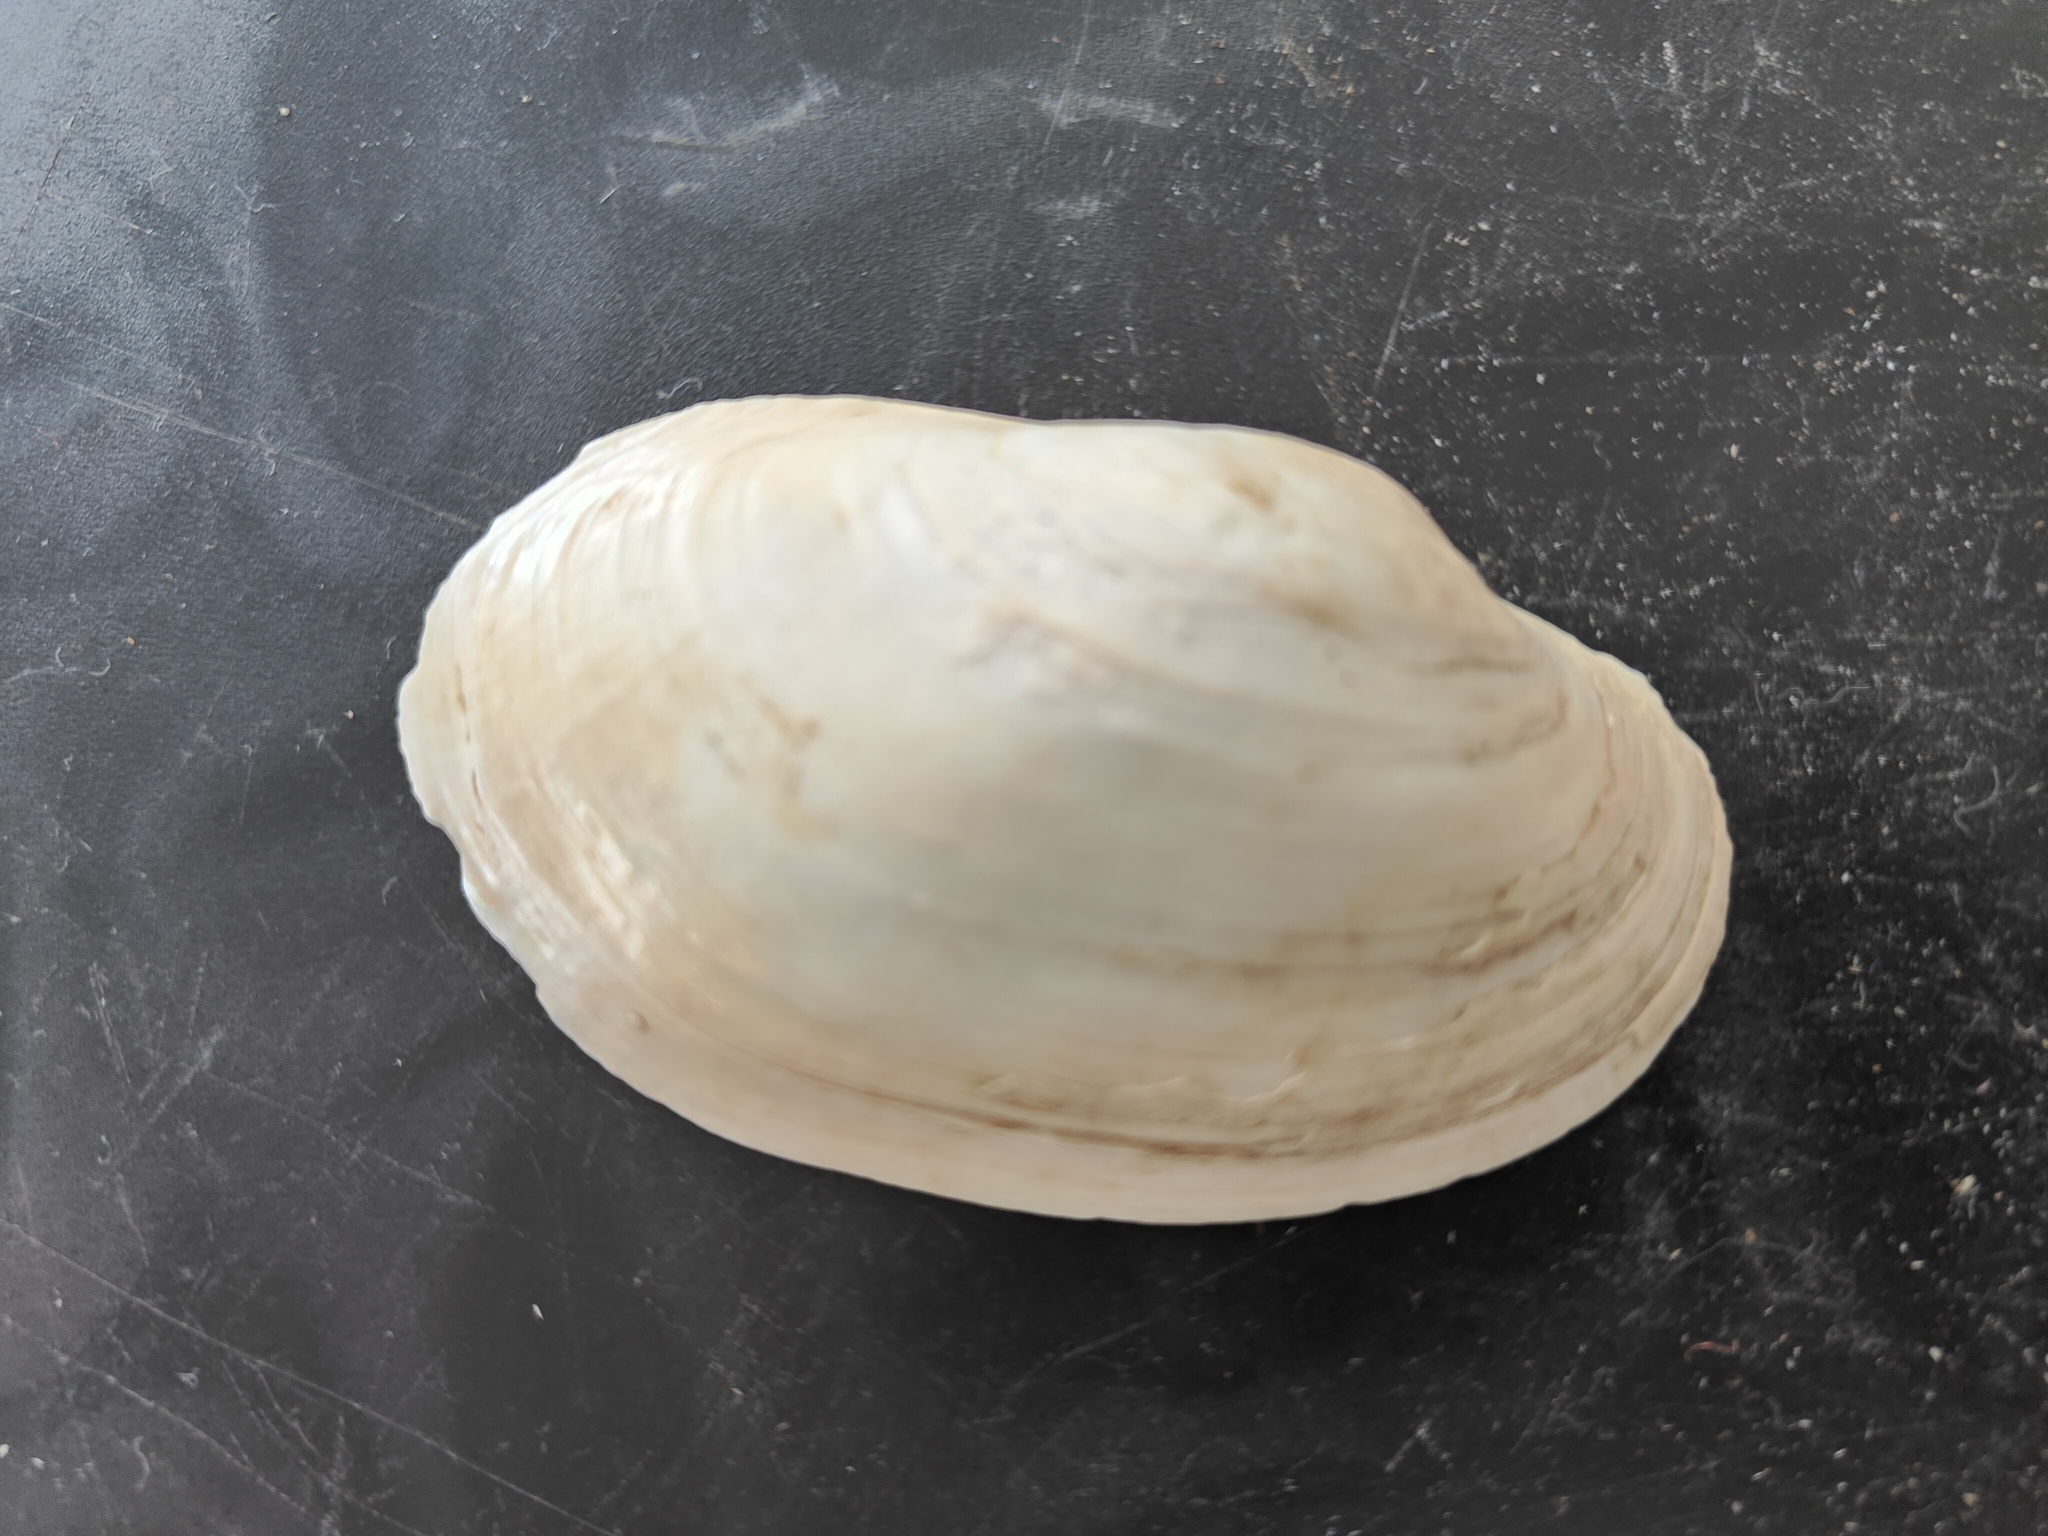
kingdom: Animalia
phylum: Mollusca
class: Bivalvia
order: Unionida
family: Unionidae
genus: Lampsilis
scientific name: Lampsilis siliquoidea
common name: Fatmucket
